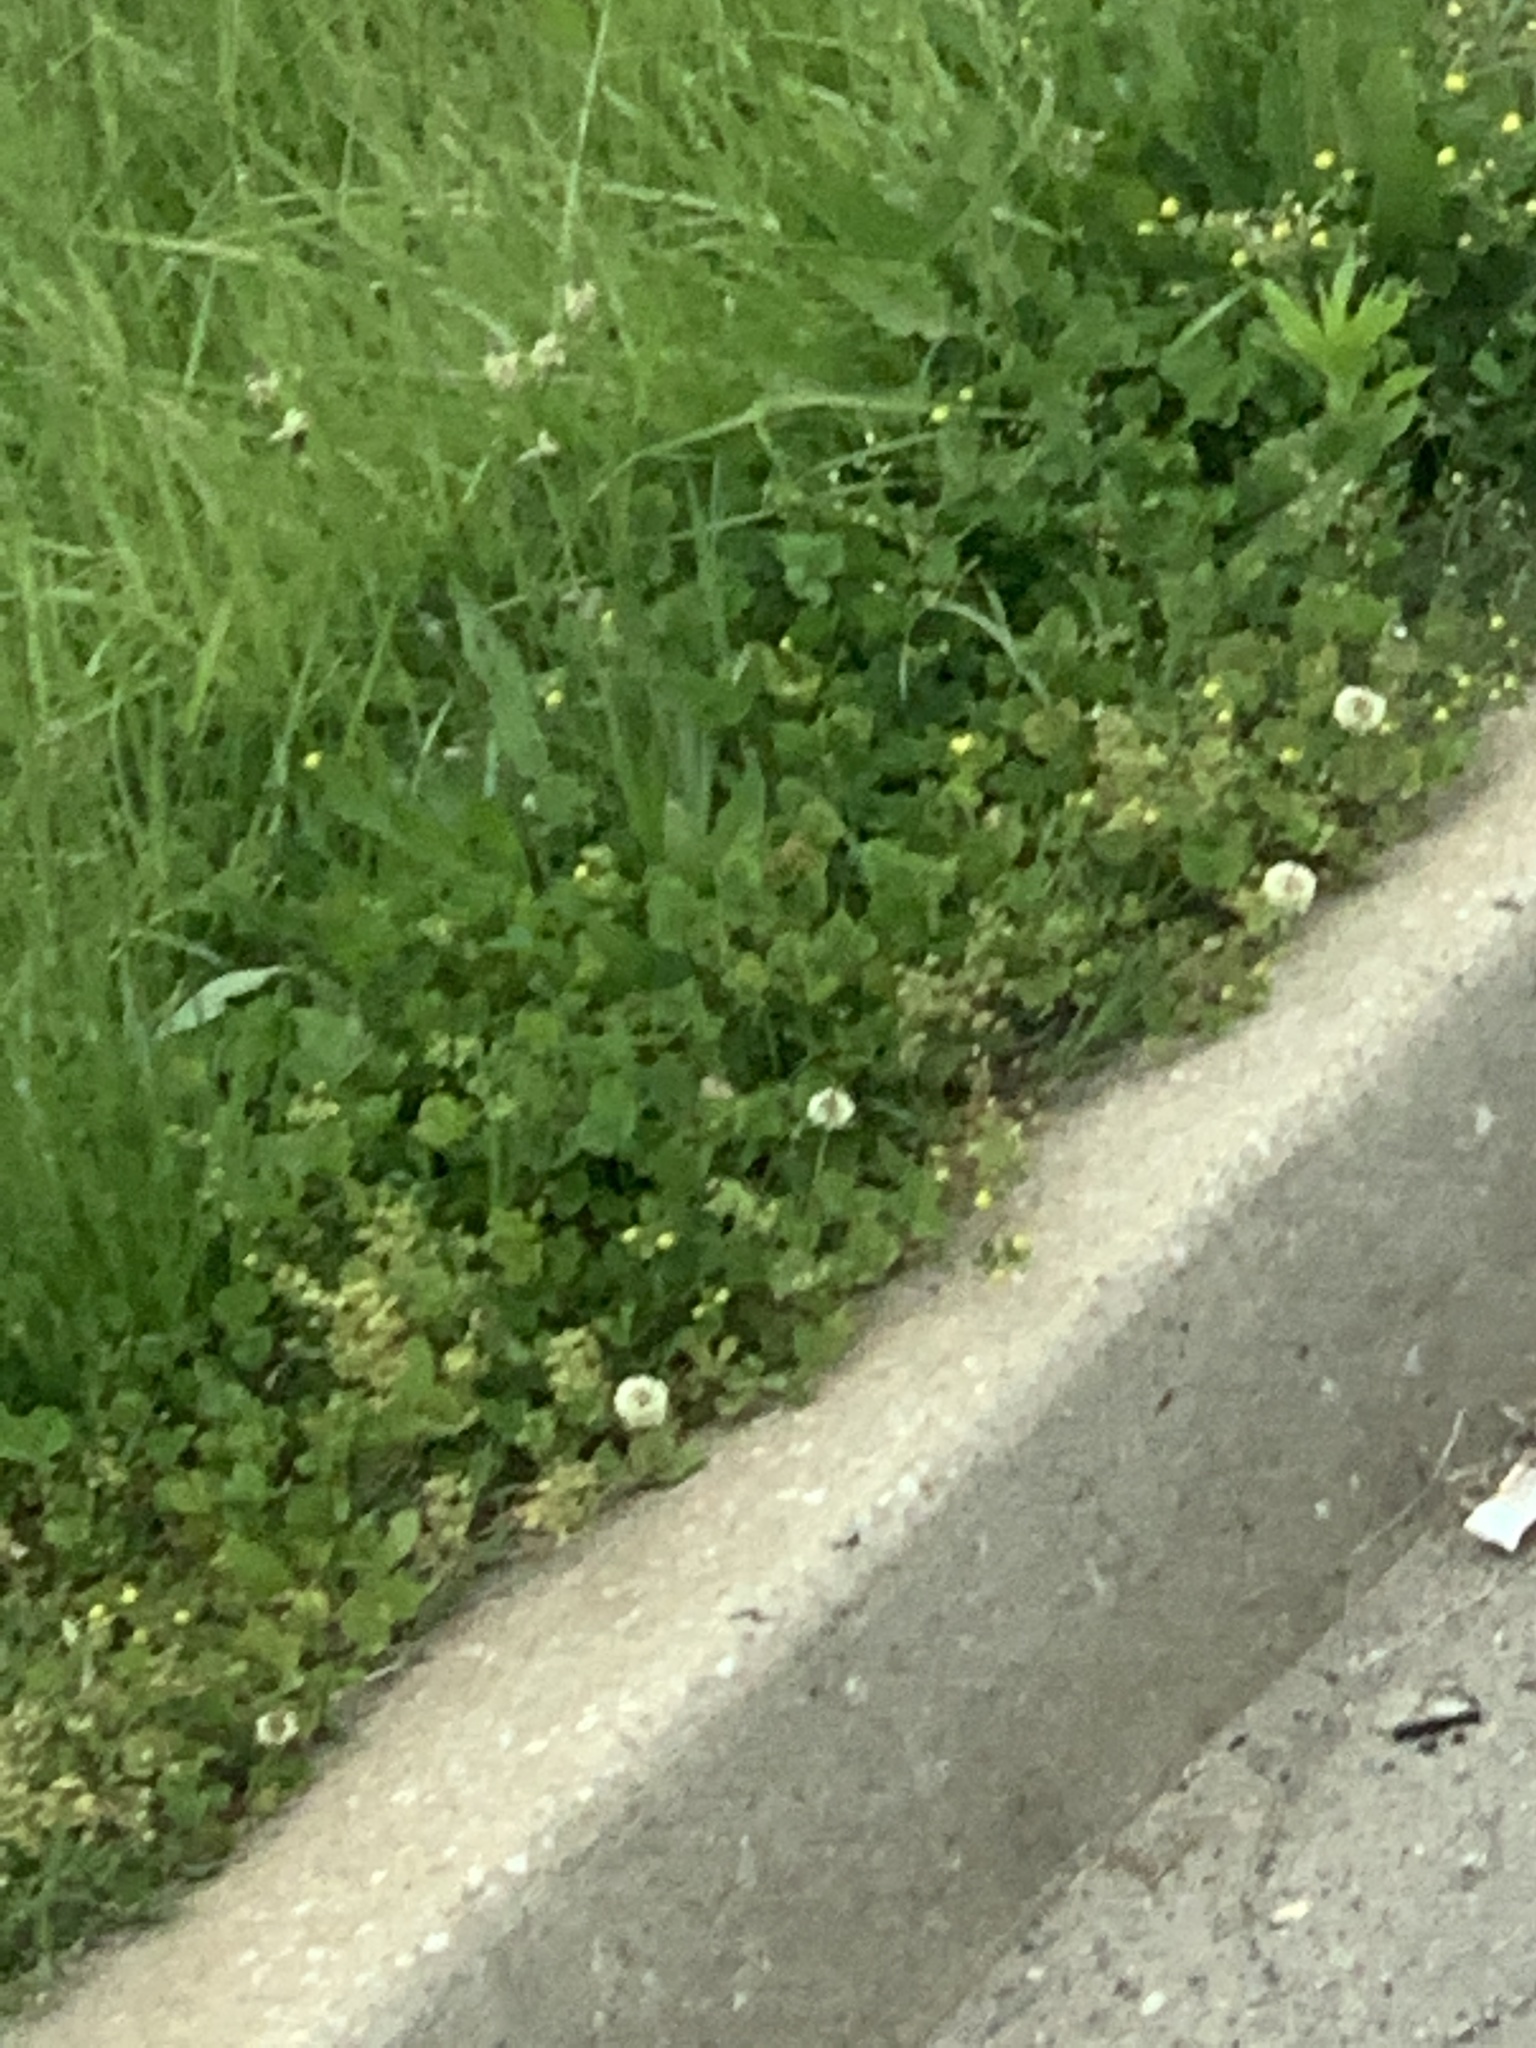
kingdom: Plantae
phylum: Tracheophyta
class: Magnoliopsida
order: Fabales
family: Fabaceae
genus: Trifolium
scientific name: Trifolium repens
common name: White clover
